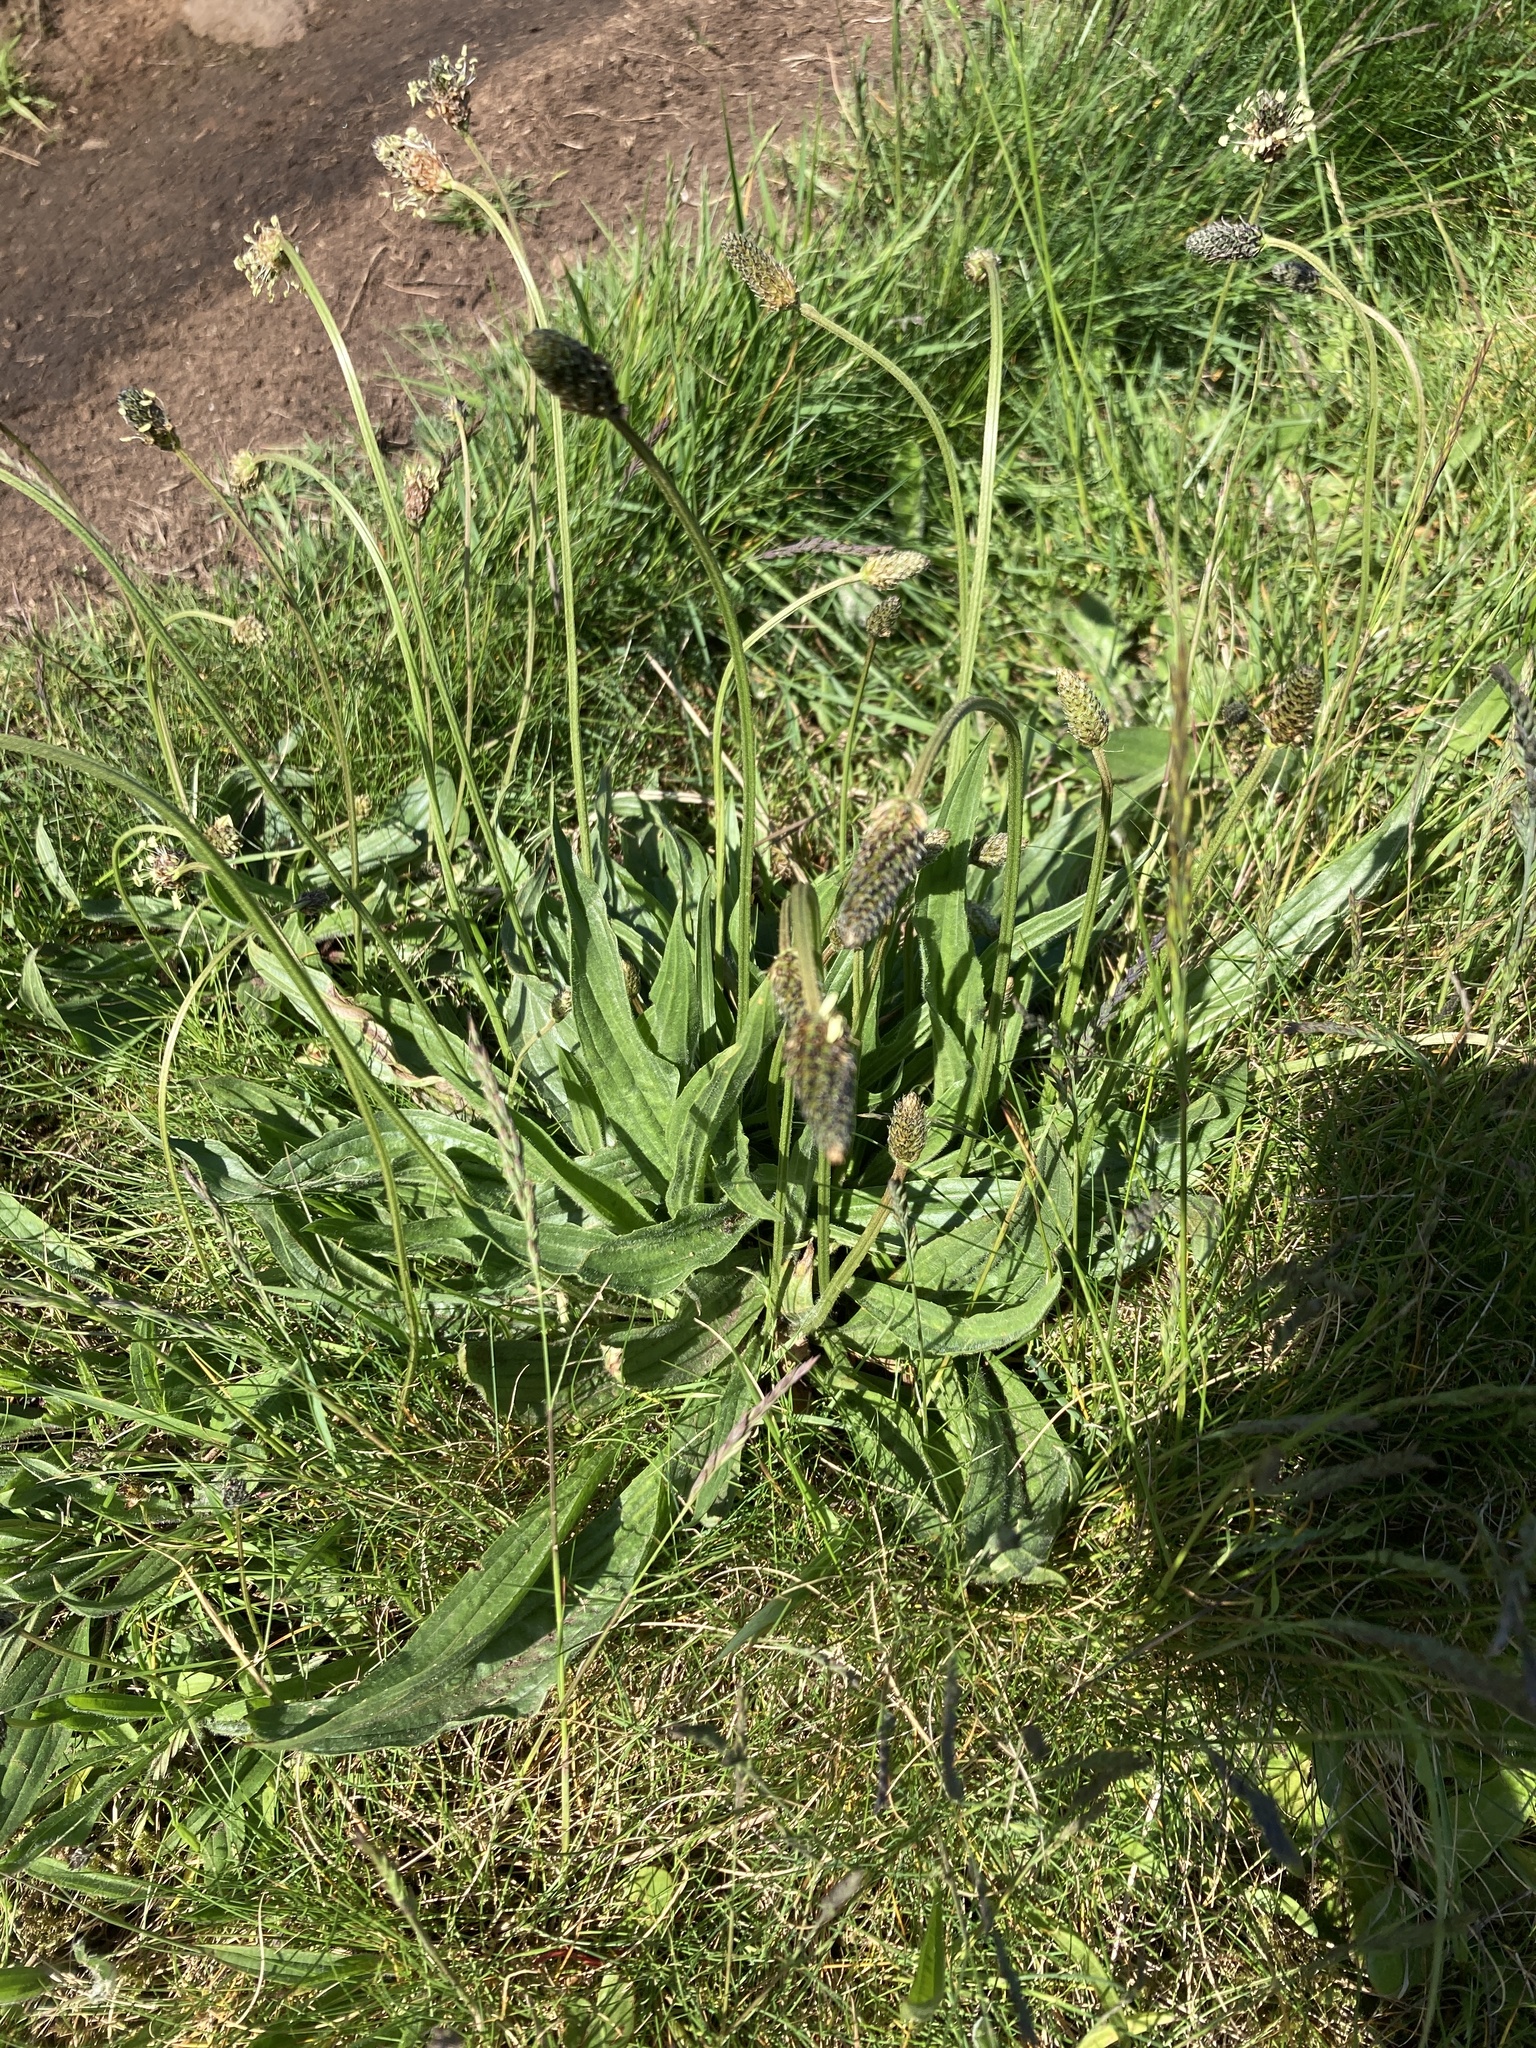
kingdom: Plantae
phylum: Tracheophyta
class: Magnoliopsida
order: Lamiales
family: Plantaginaceae
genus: Plantago
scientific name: Plantago lanceolata
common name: Ribwort plantain
